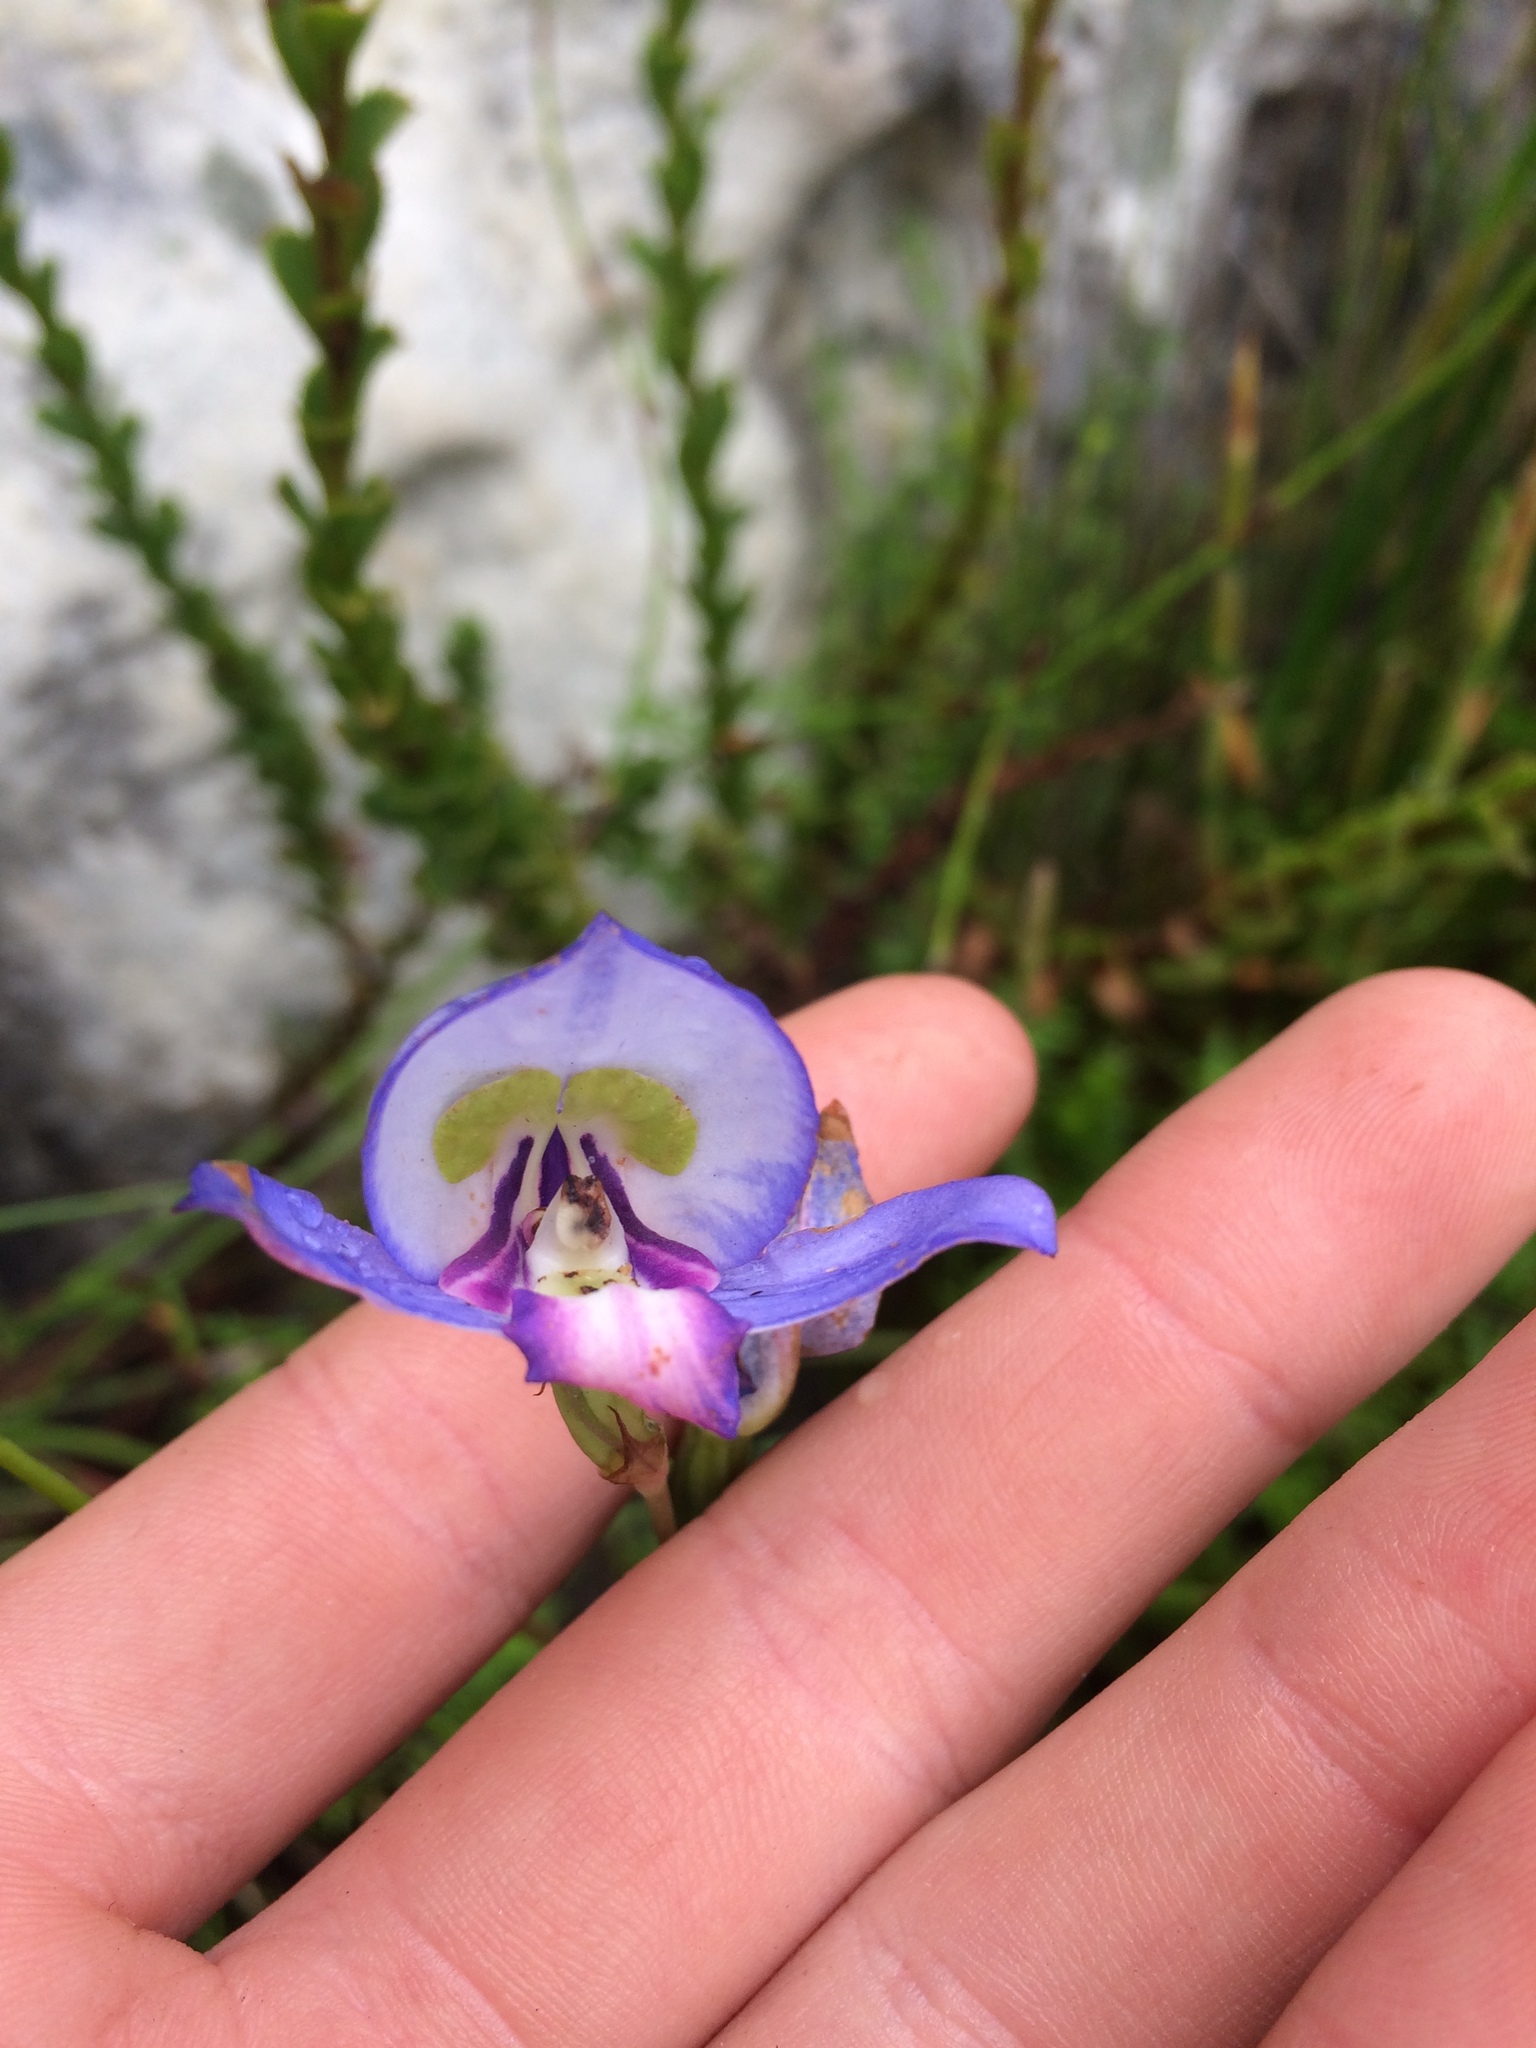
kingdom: Plantae
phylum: Tracheophyta
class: Liliopsida
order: Asparagales
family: Orchidaceae
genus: Disa
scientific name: Disa graminifolia
